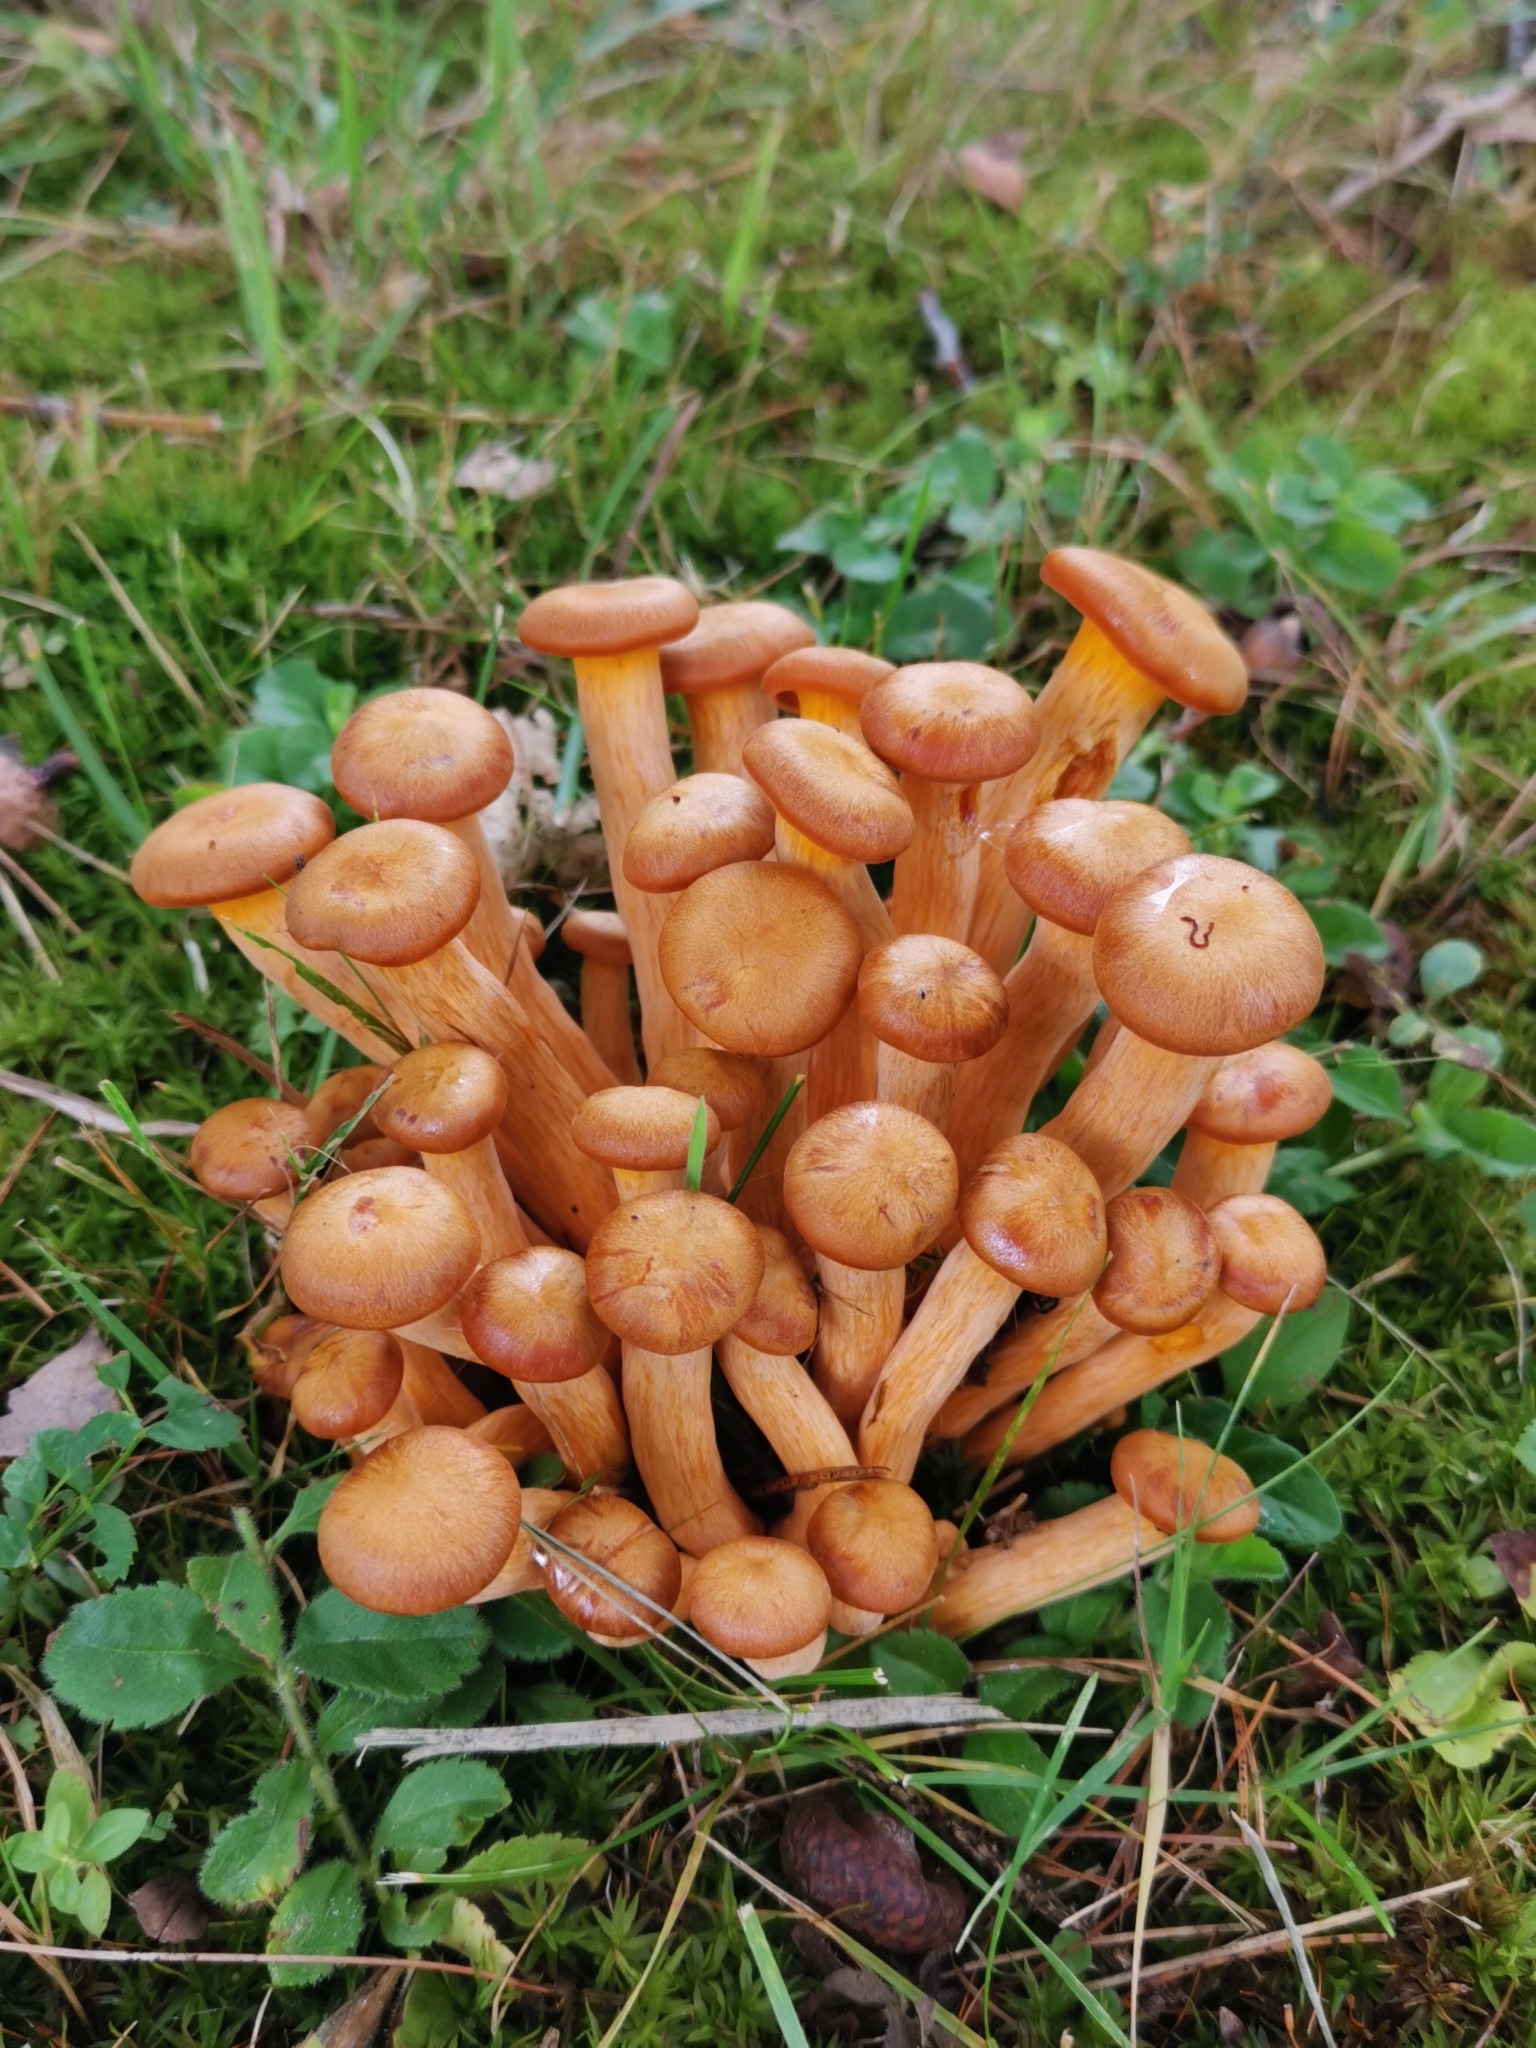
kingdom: Fungi
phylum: Basidiomycota
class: Agaricomycetes
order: Agaricales
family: Omphalotaceae
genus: Omphalotus
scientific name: Omphalotus illudens
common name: Jack o lantern
